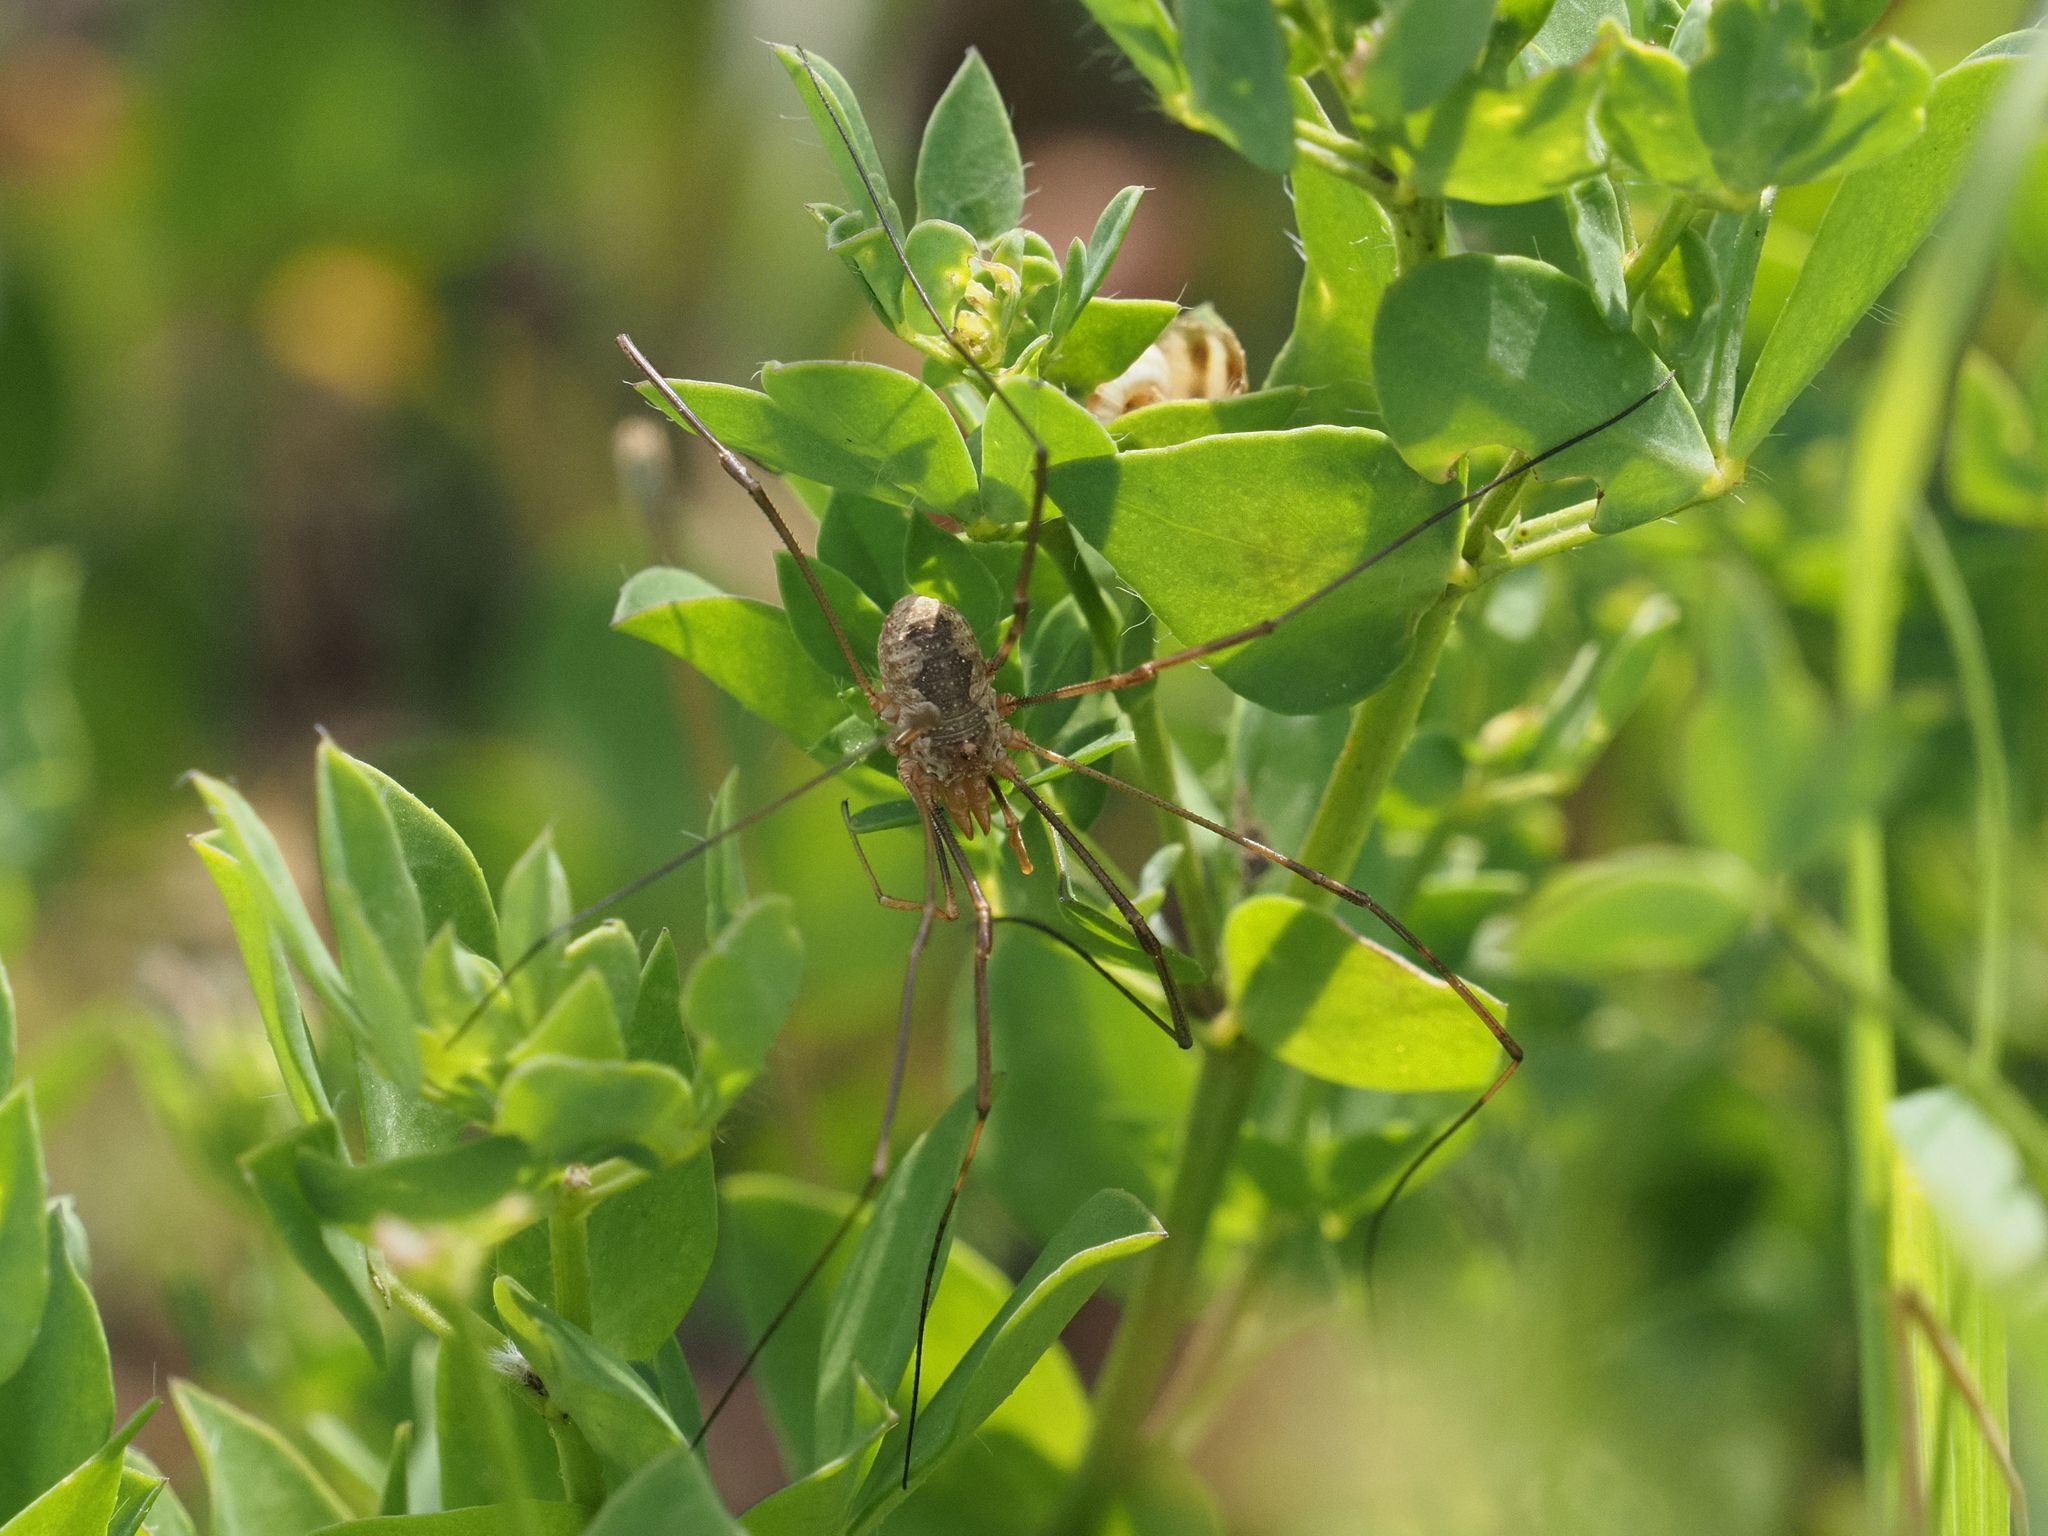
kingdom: Animalia
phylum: Arthropoda
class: Arachnida
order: Opiliones
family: Phalangiidae
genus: Phalangium
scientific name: Phalangium opilio
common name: Daddy longleg
